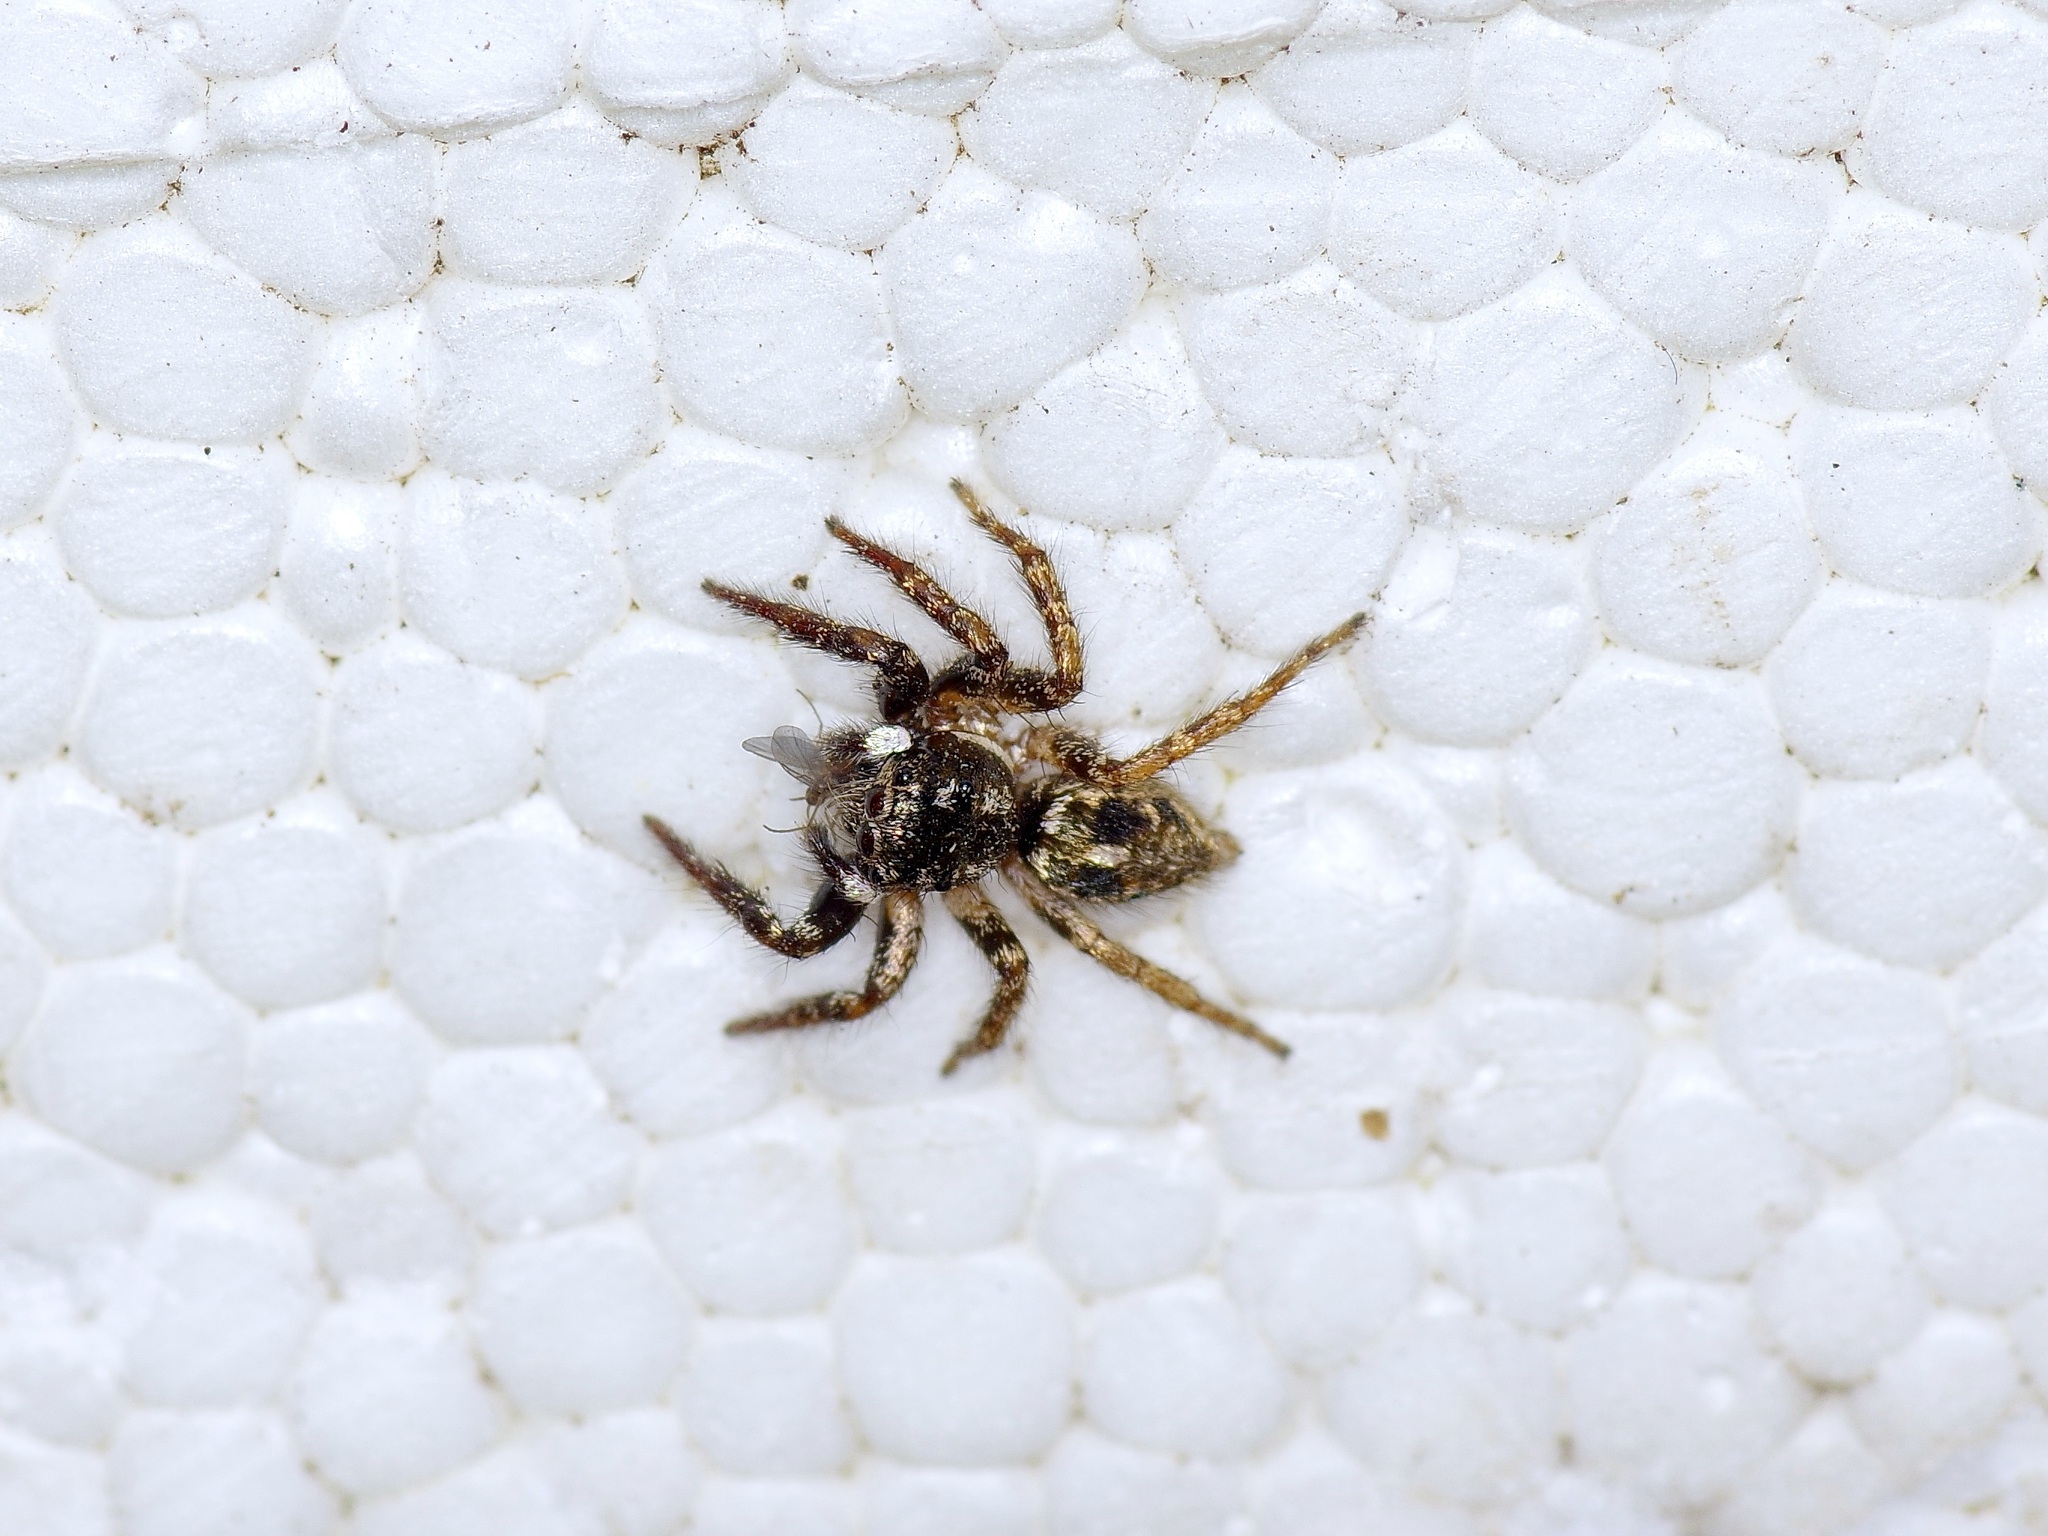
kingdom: Animalia
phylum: Arthropoda
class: Arachnida
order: Araneae
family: Salticidae
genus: Anasaitis
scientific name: Anasaitis canosa
